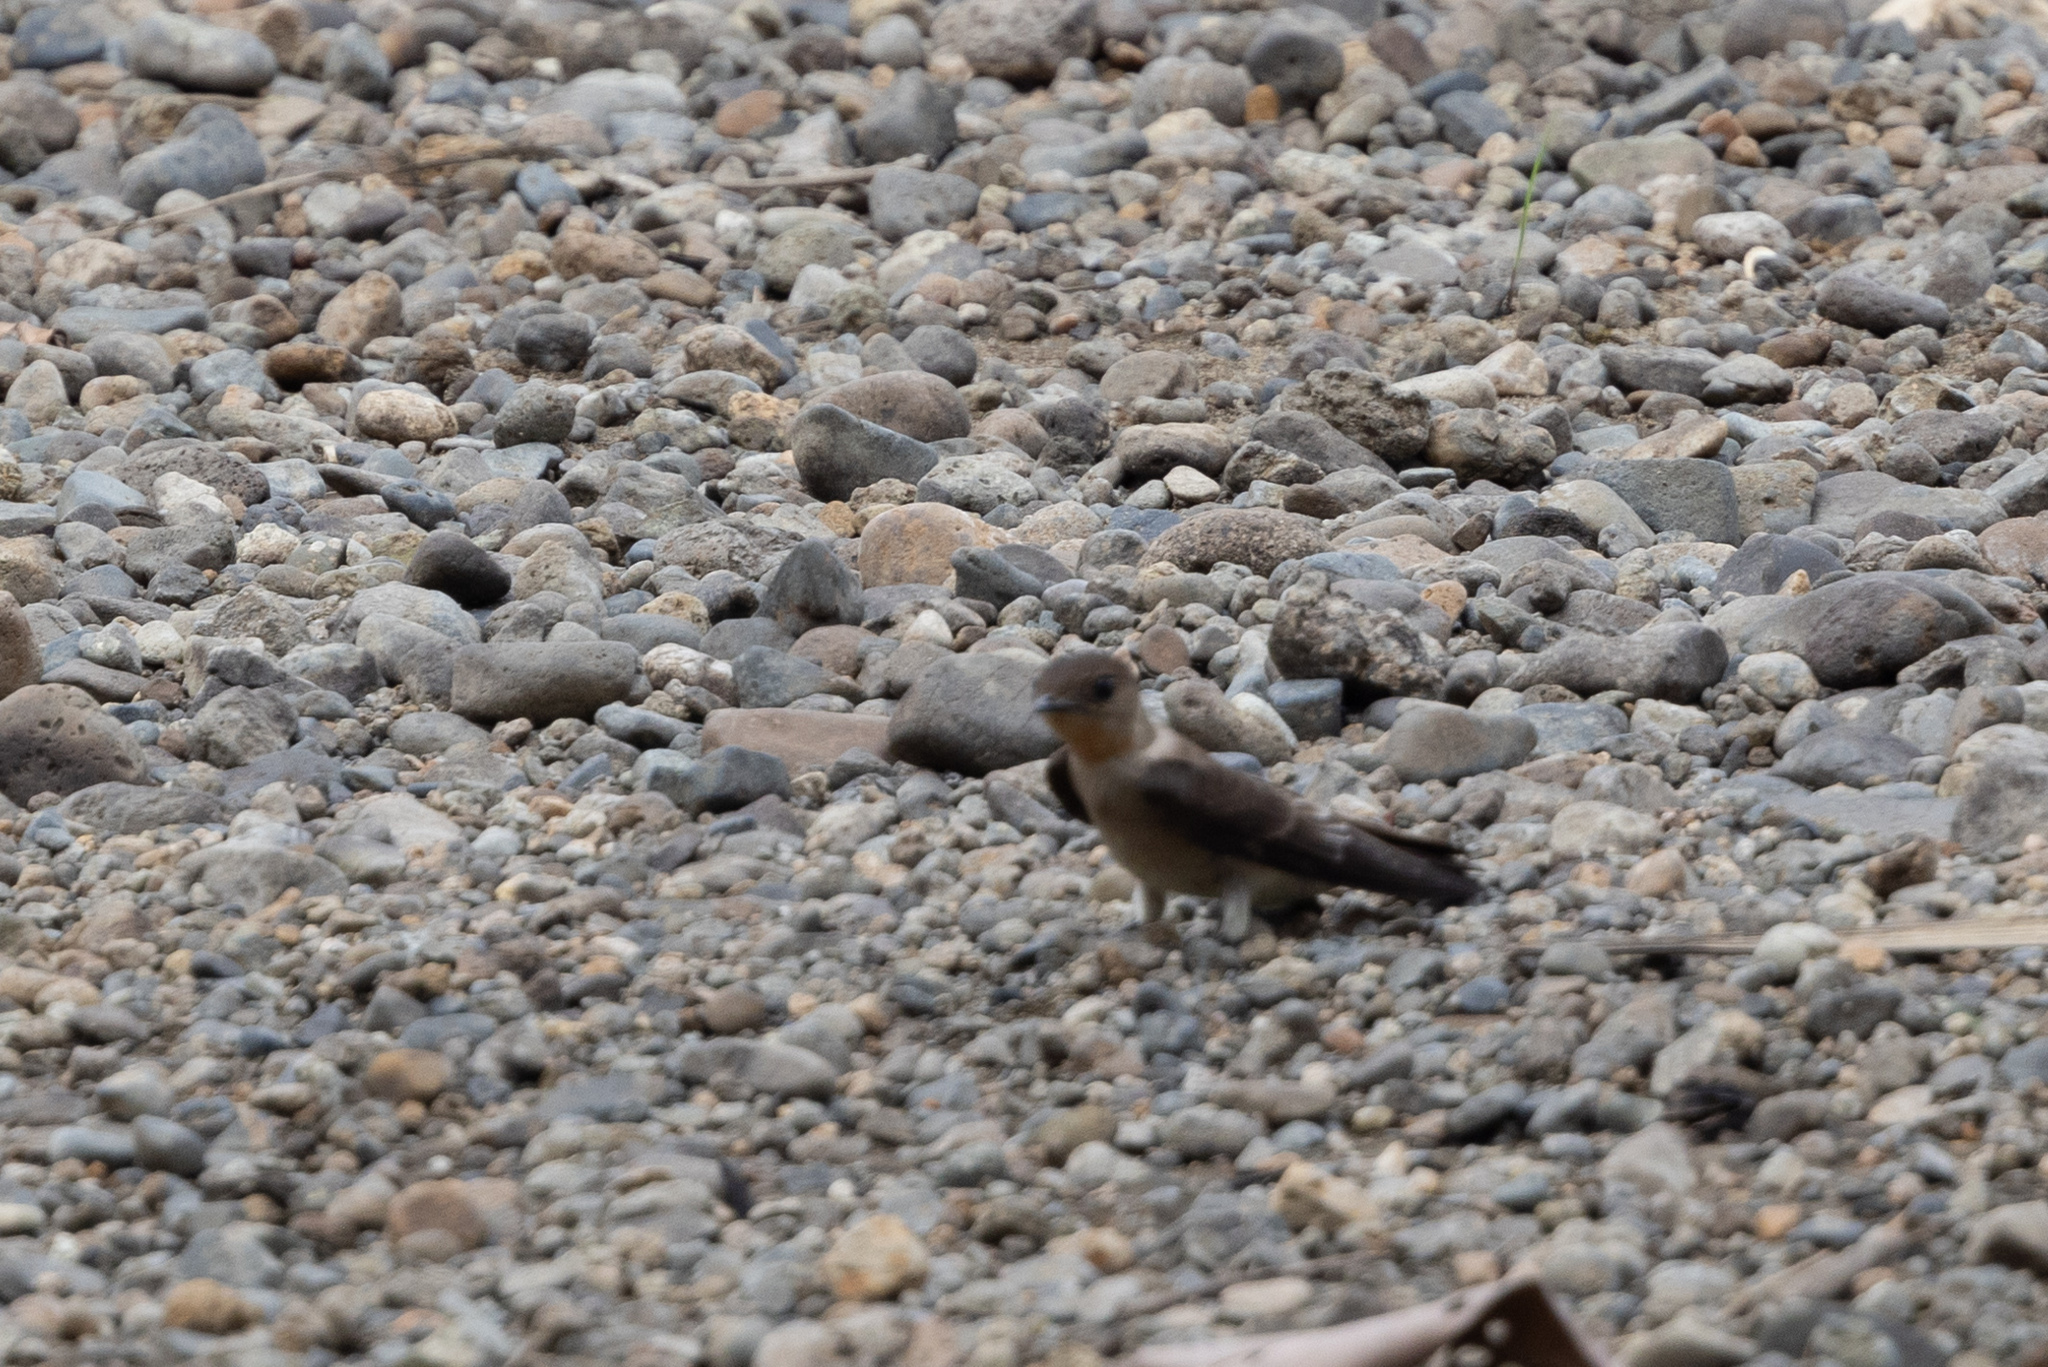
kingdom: Animalia
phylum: Chordata
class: Aves
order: Passeriformes
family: Hirundinidae
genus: Stelgidopteryx
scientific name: Stelgidopteryx ruficollis
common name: Southern rough-winged swallow
